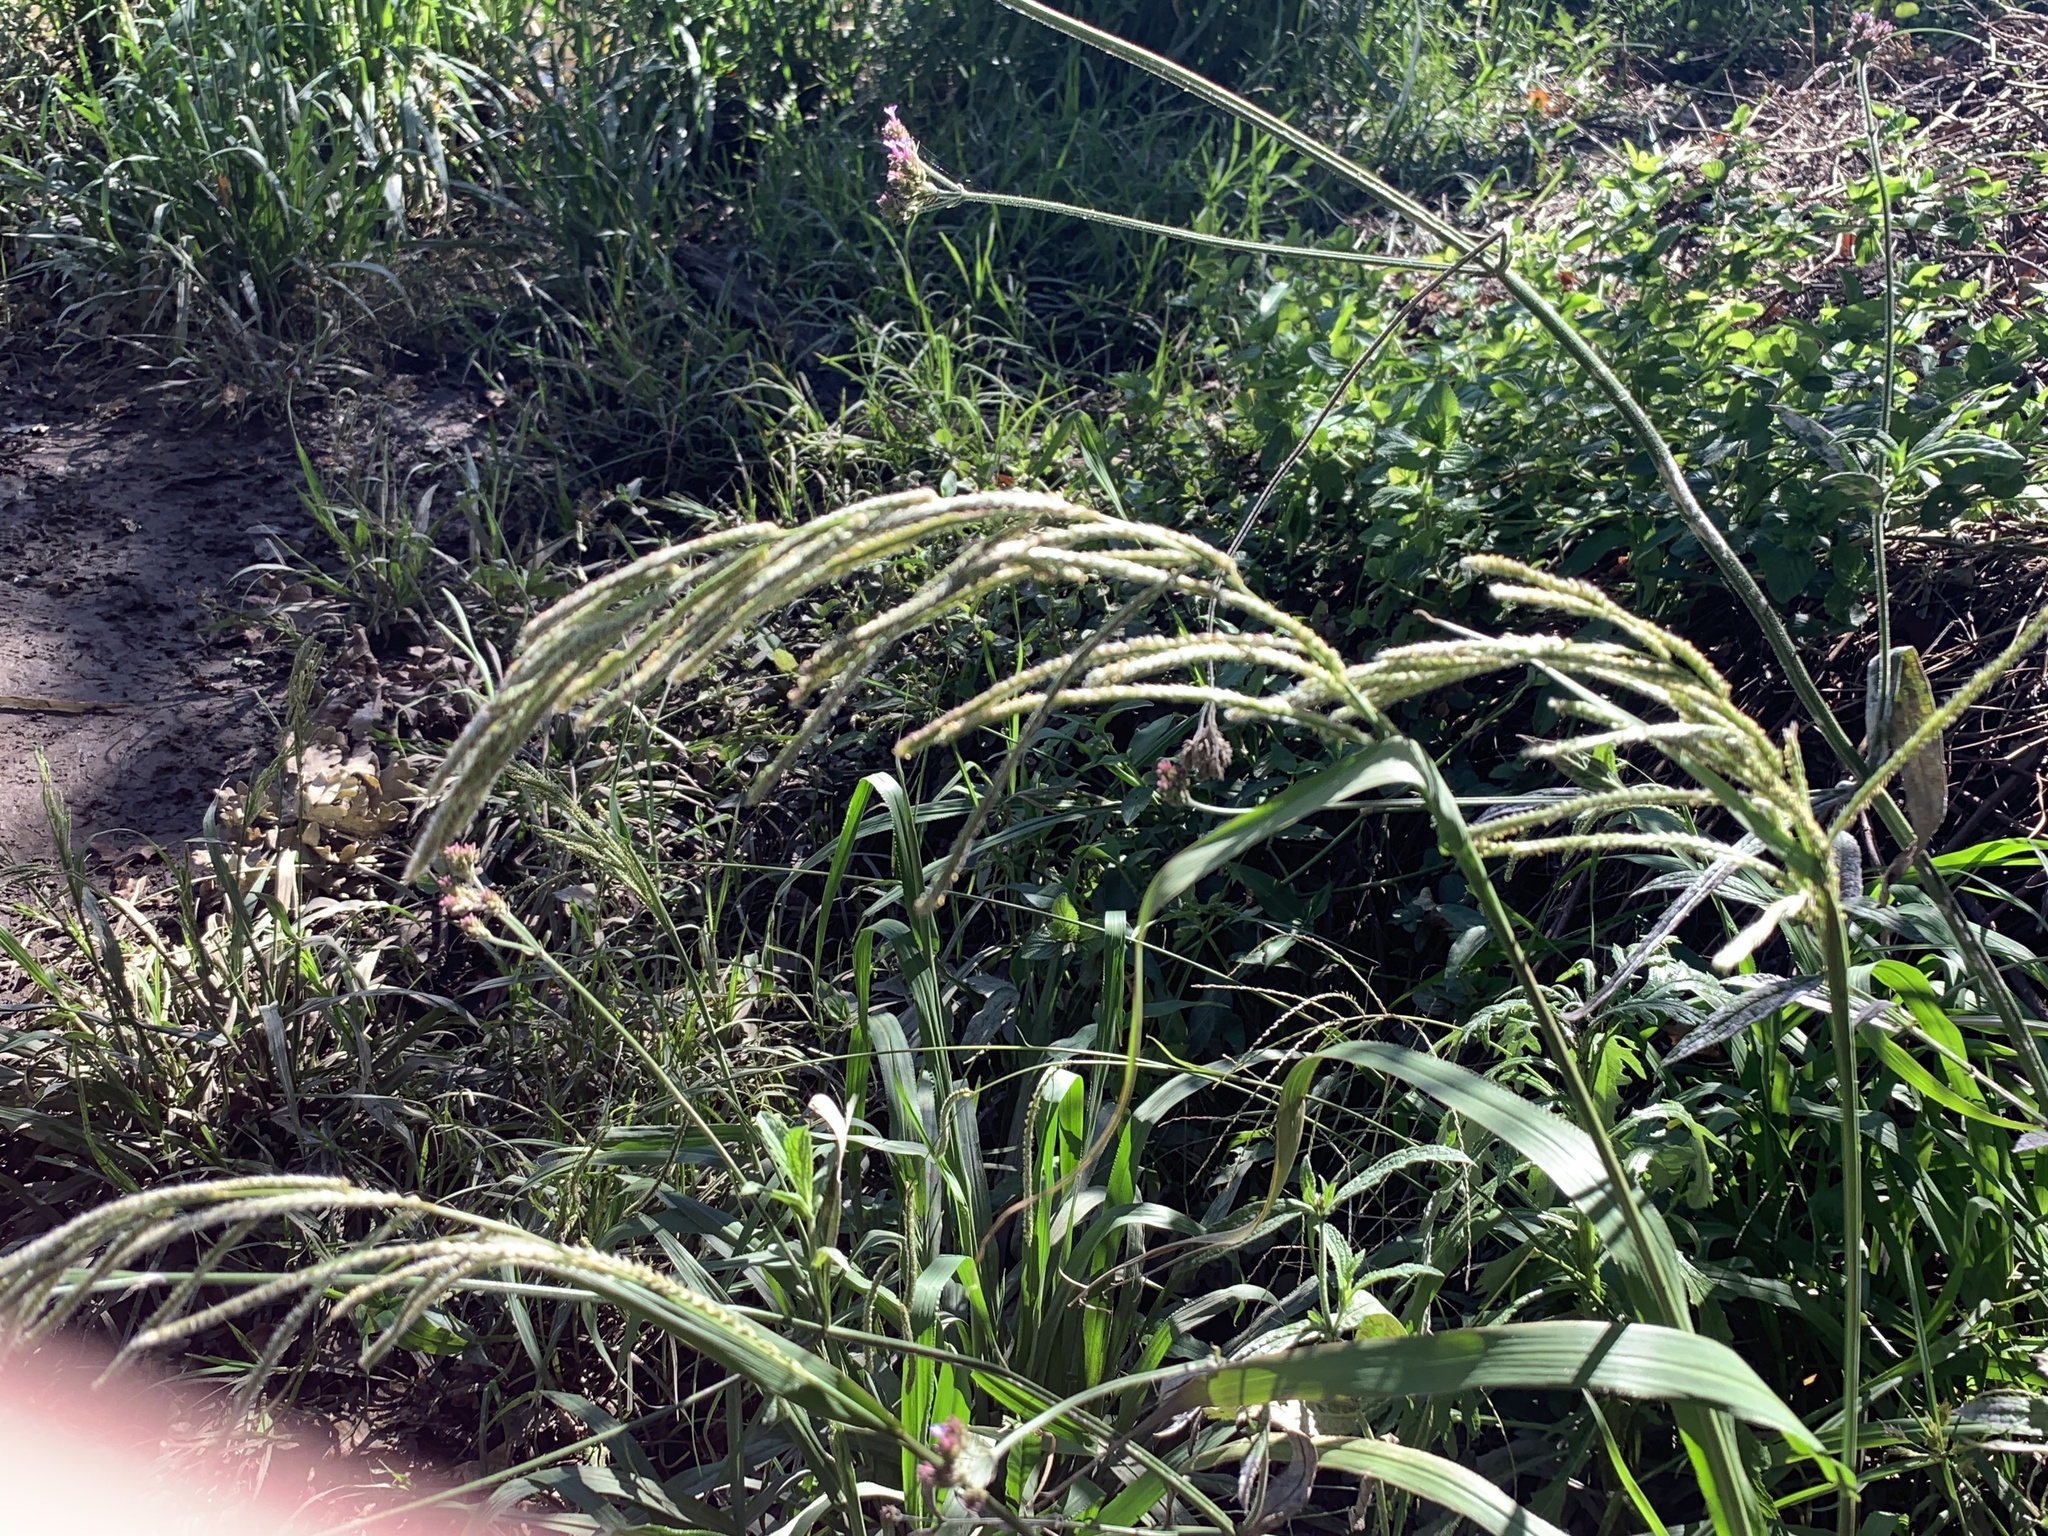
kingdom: Plantae
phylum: Tracheophyta
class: Liliopsida
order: Poales
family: Poaceae
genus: Paspalum
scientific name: Paspalum urvillei
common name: Vasey's grass
